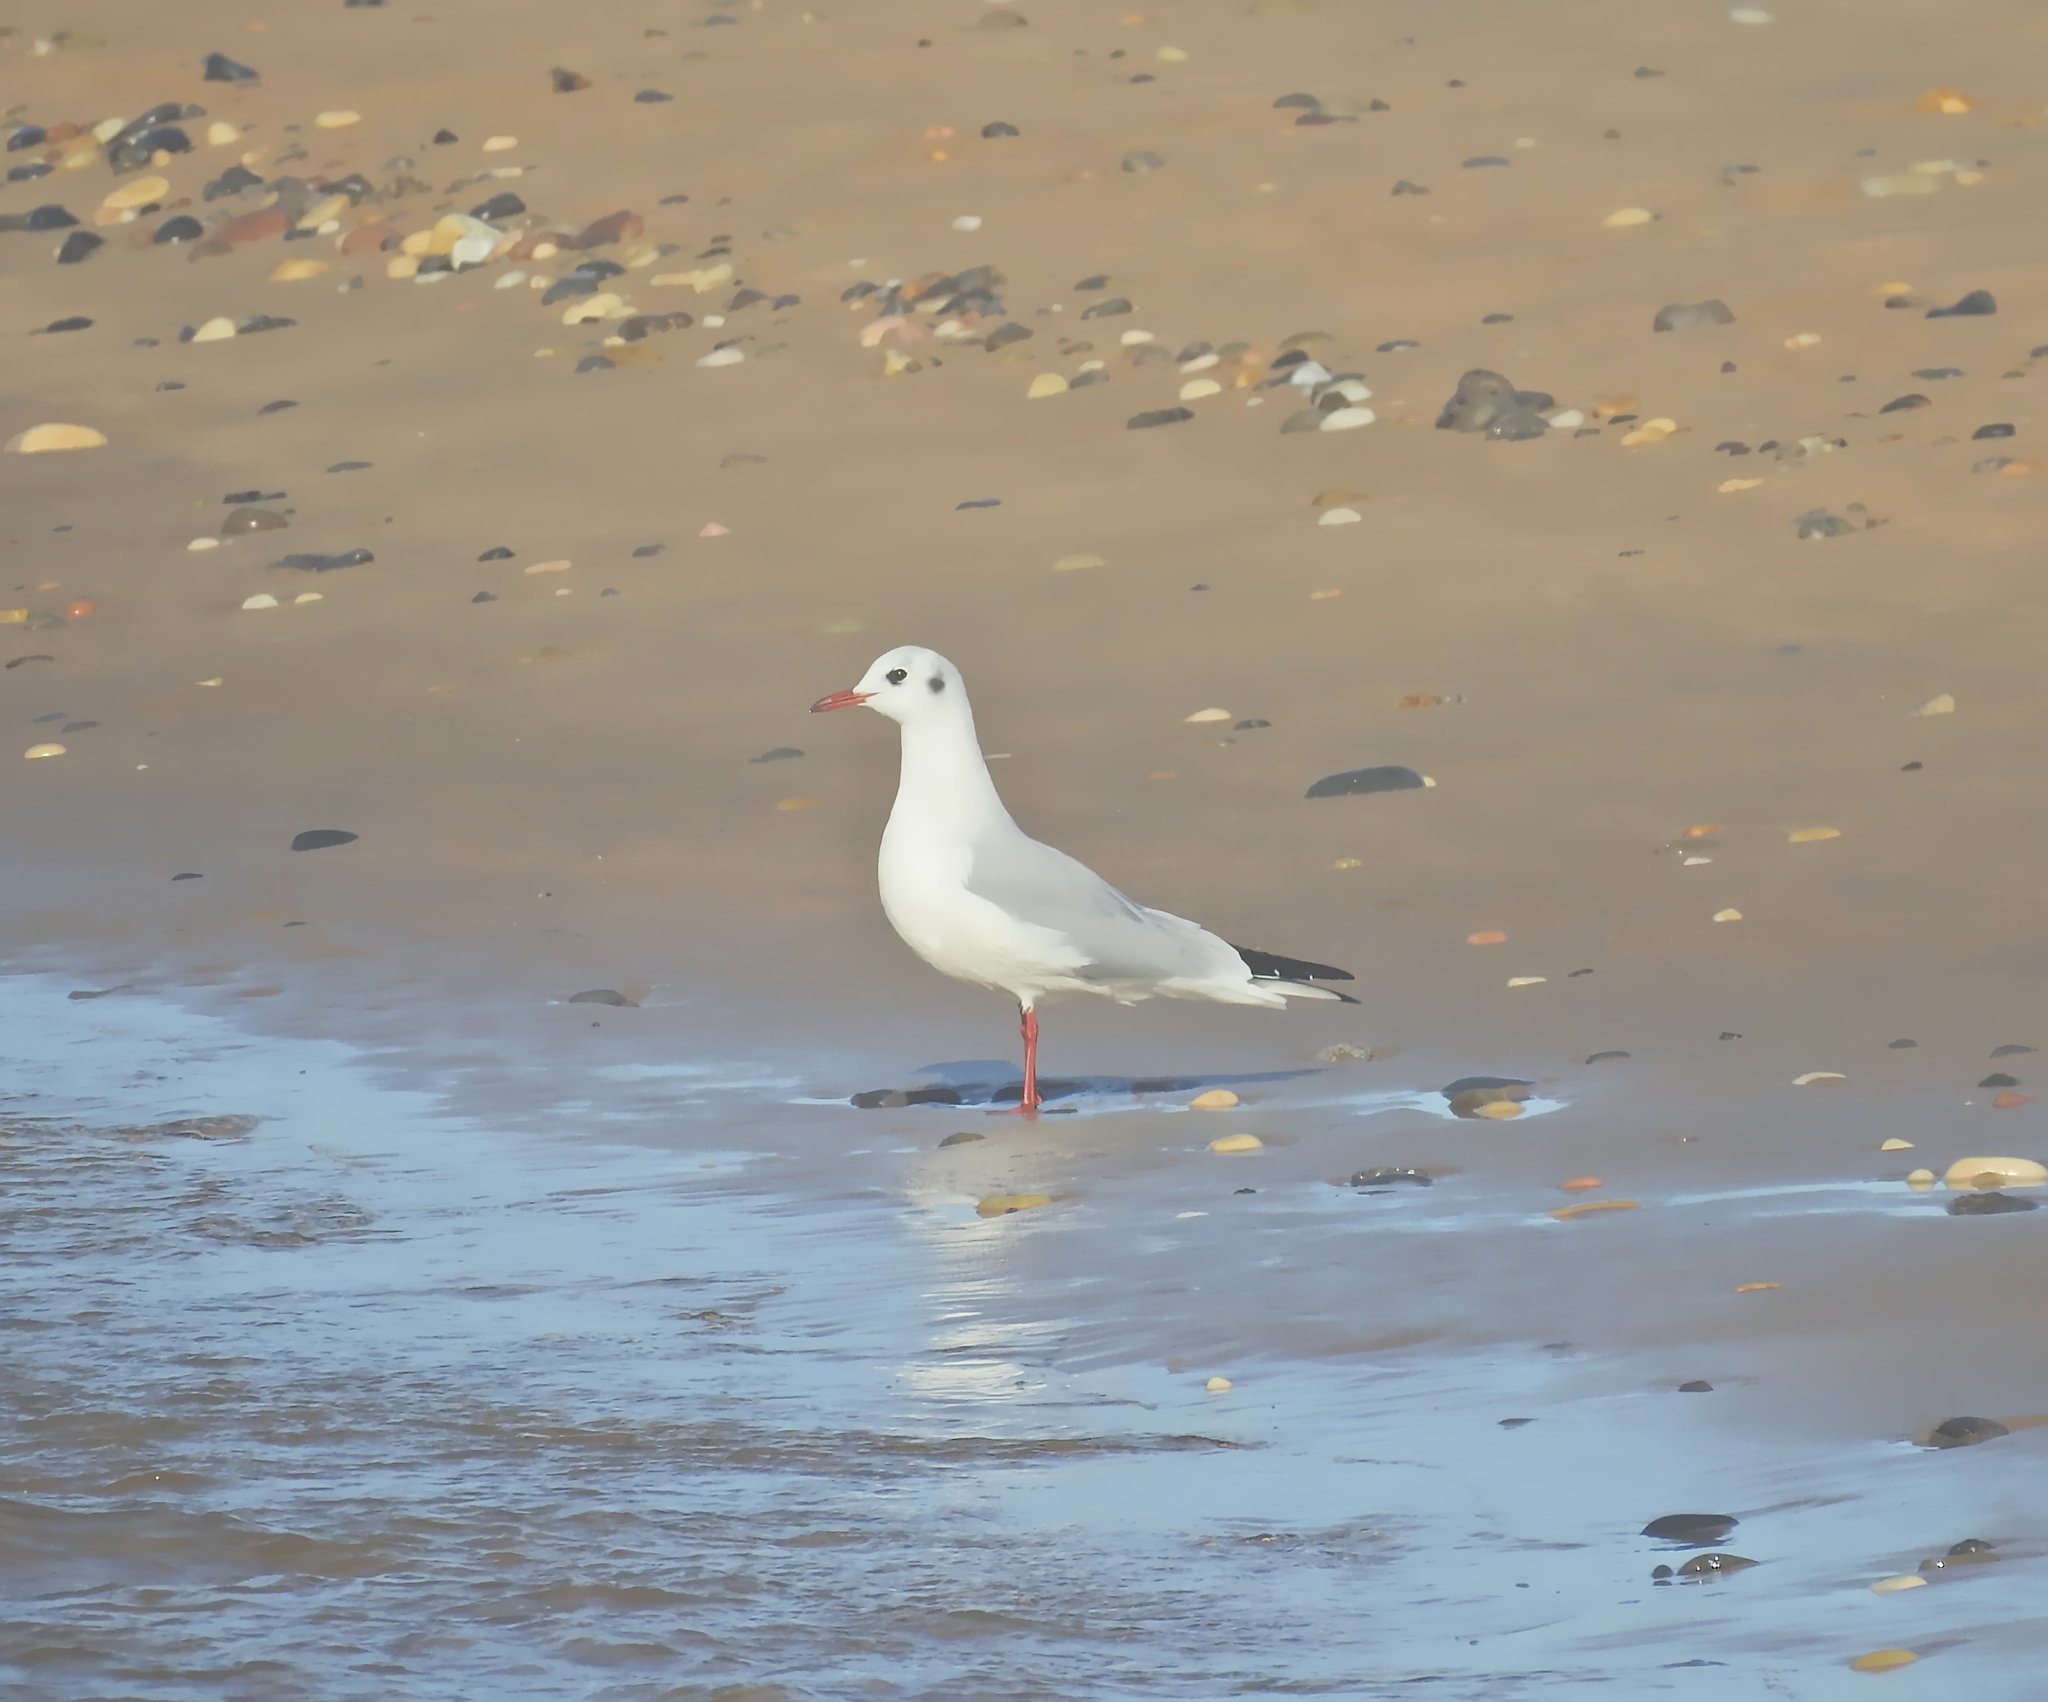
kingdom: Animalia
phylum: Chordata
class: Aves
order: Charadriiformes
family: Laridae
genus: Chroicocephalus
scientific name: Chroicocephalus ridibundus
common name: Black-headed gull
